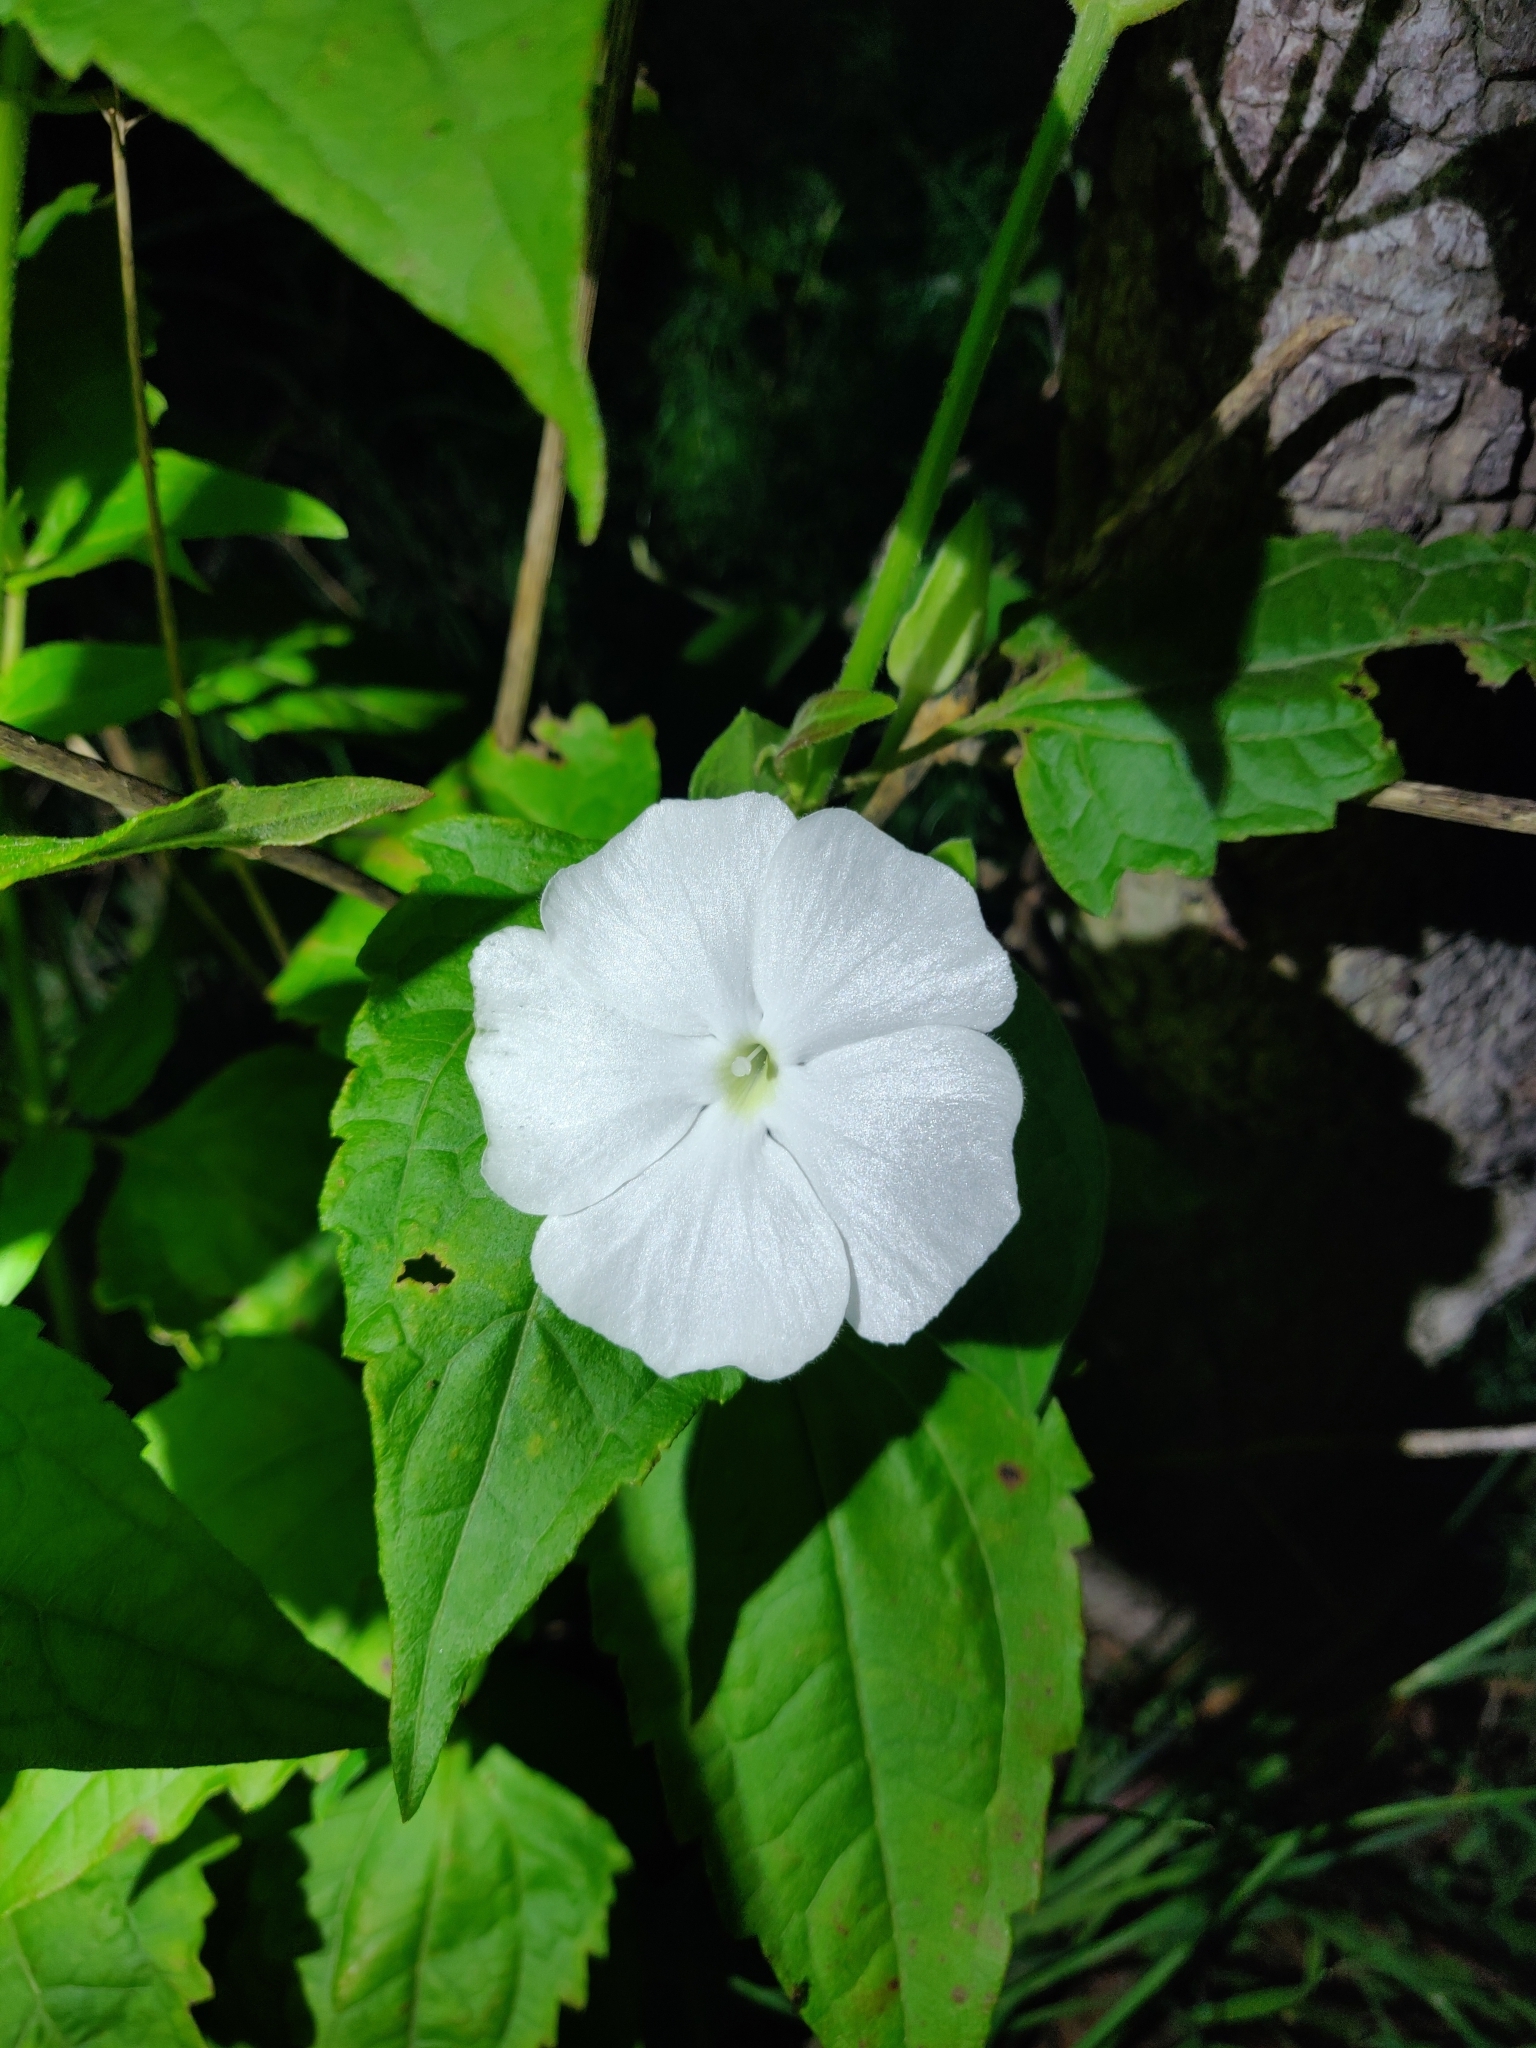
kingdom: Plantae
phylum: Tracheophyta
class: Magnoliopsida
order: Lamiales
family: Acanthaceae
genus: Thunbergia
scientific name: Thunbergia fragrans
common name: Whitelady
